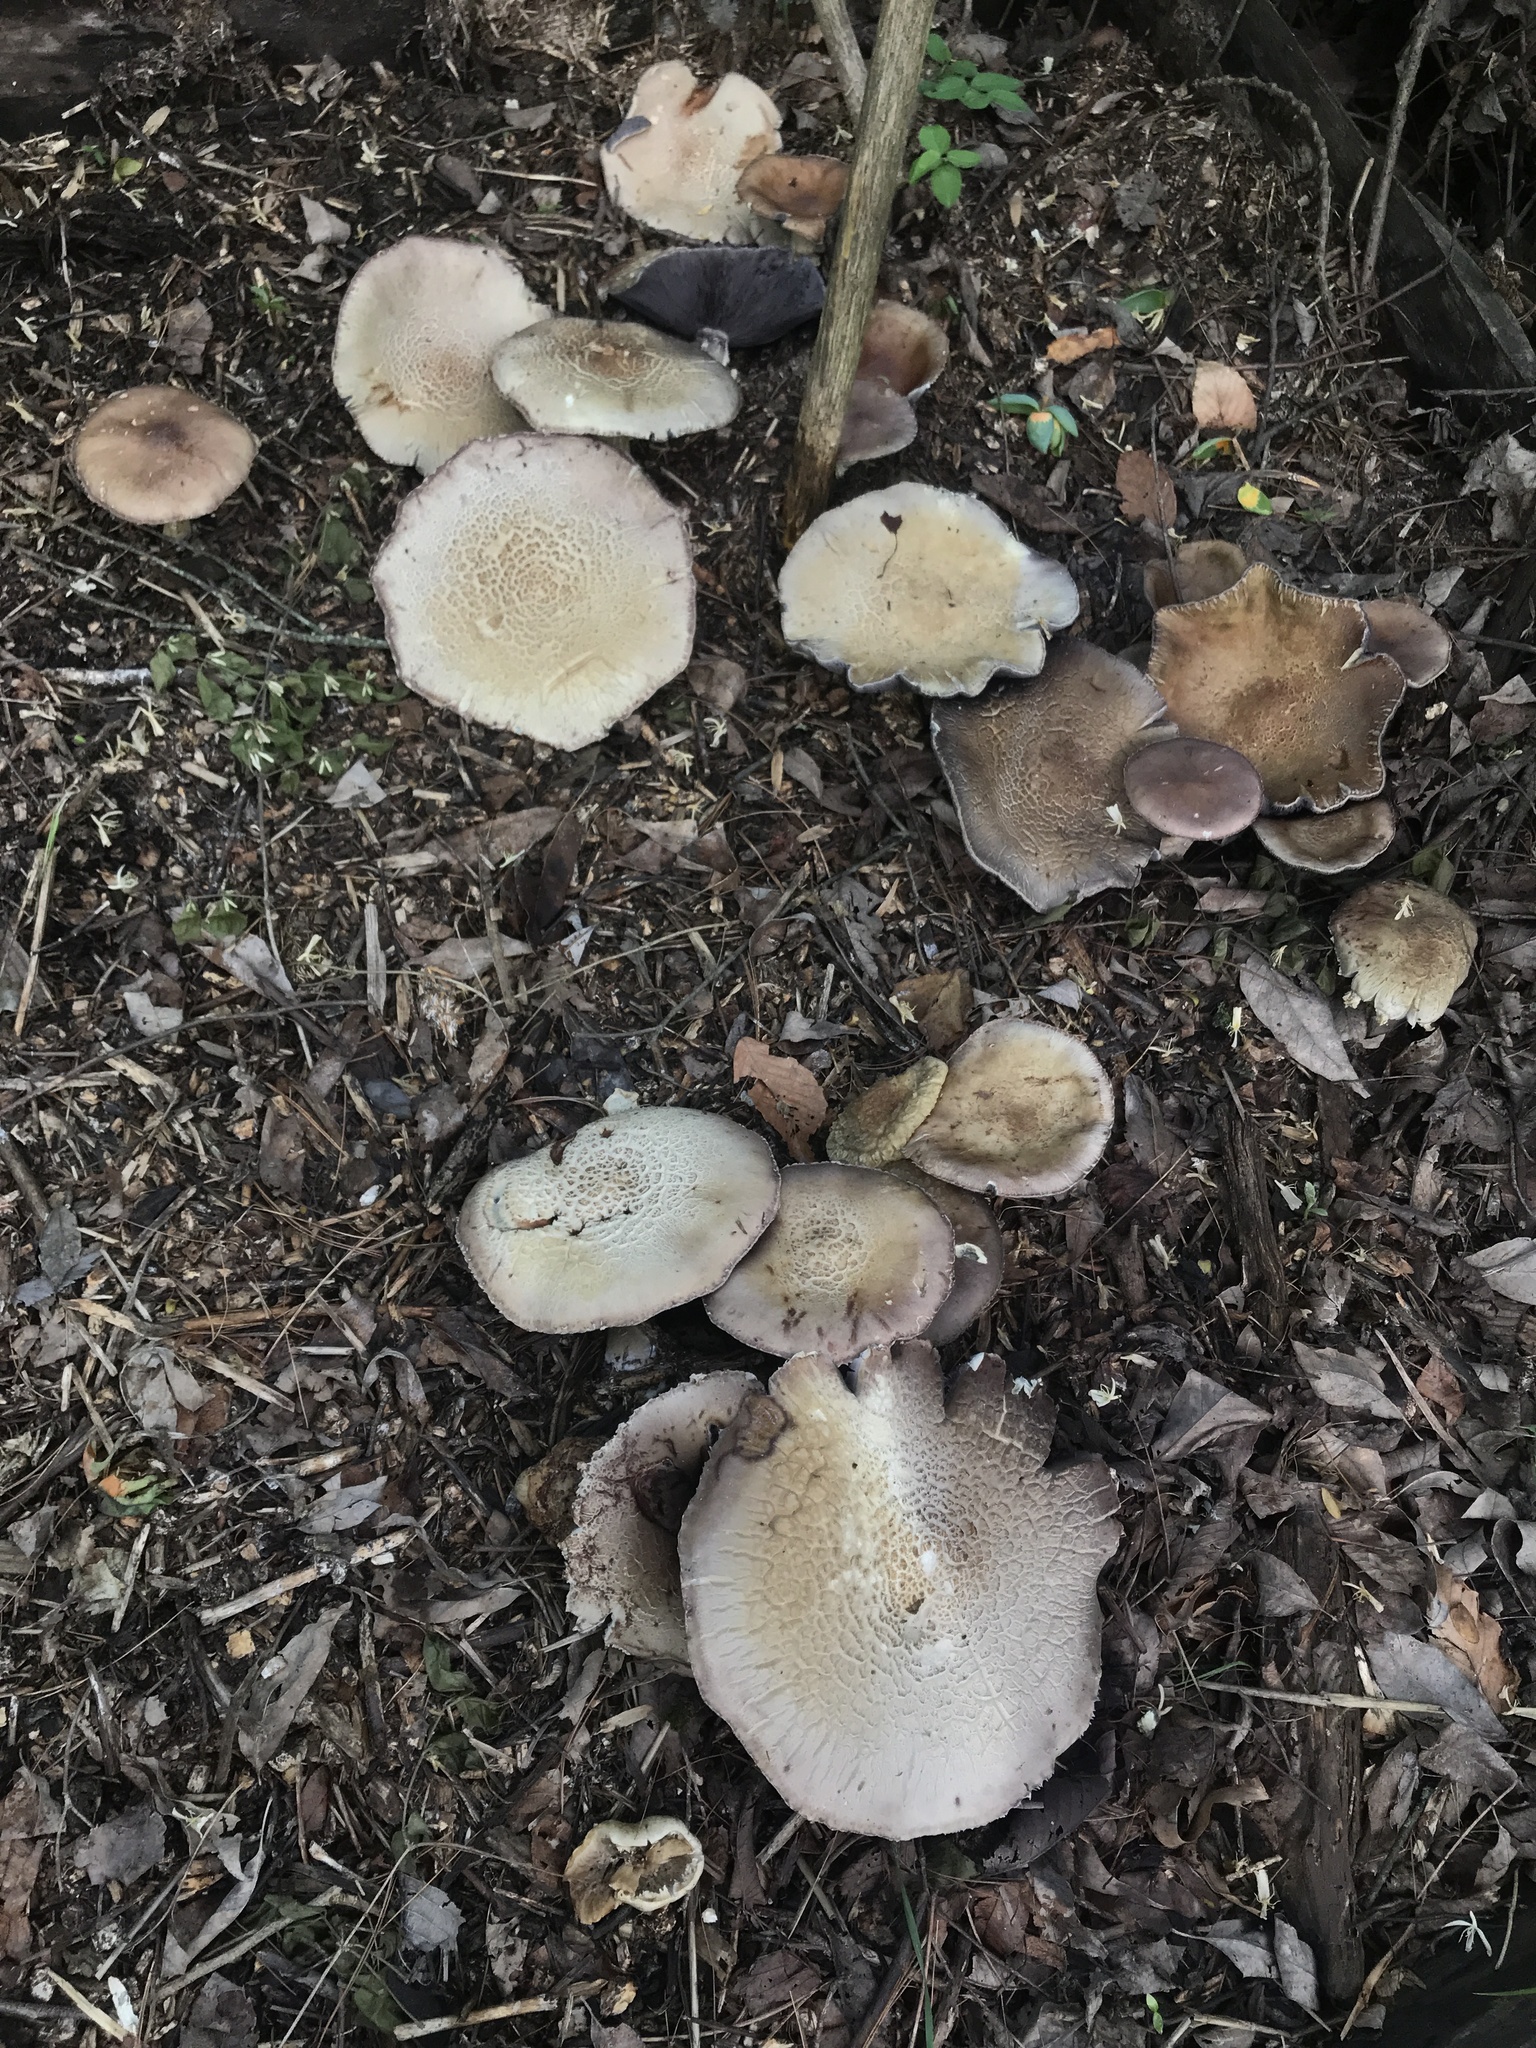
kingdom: Fungi
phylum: Basidiomycota
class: Agaricomycetes
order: Agaricales
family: Strophariaceae
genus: Stropharia
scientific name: Stropharia rugosoannulata
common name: Wine roundhead
